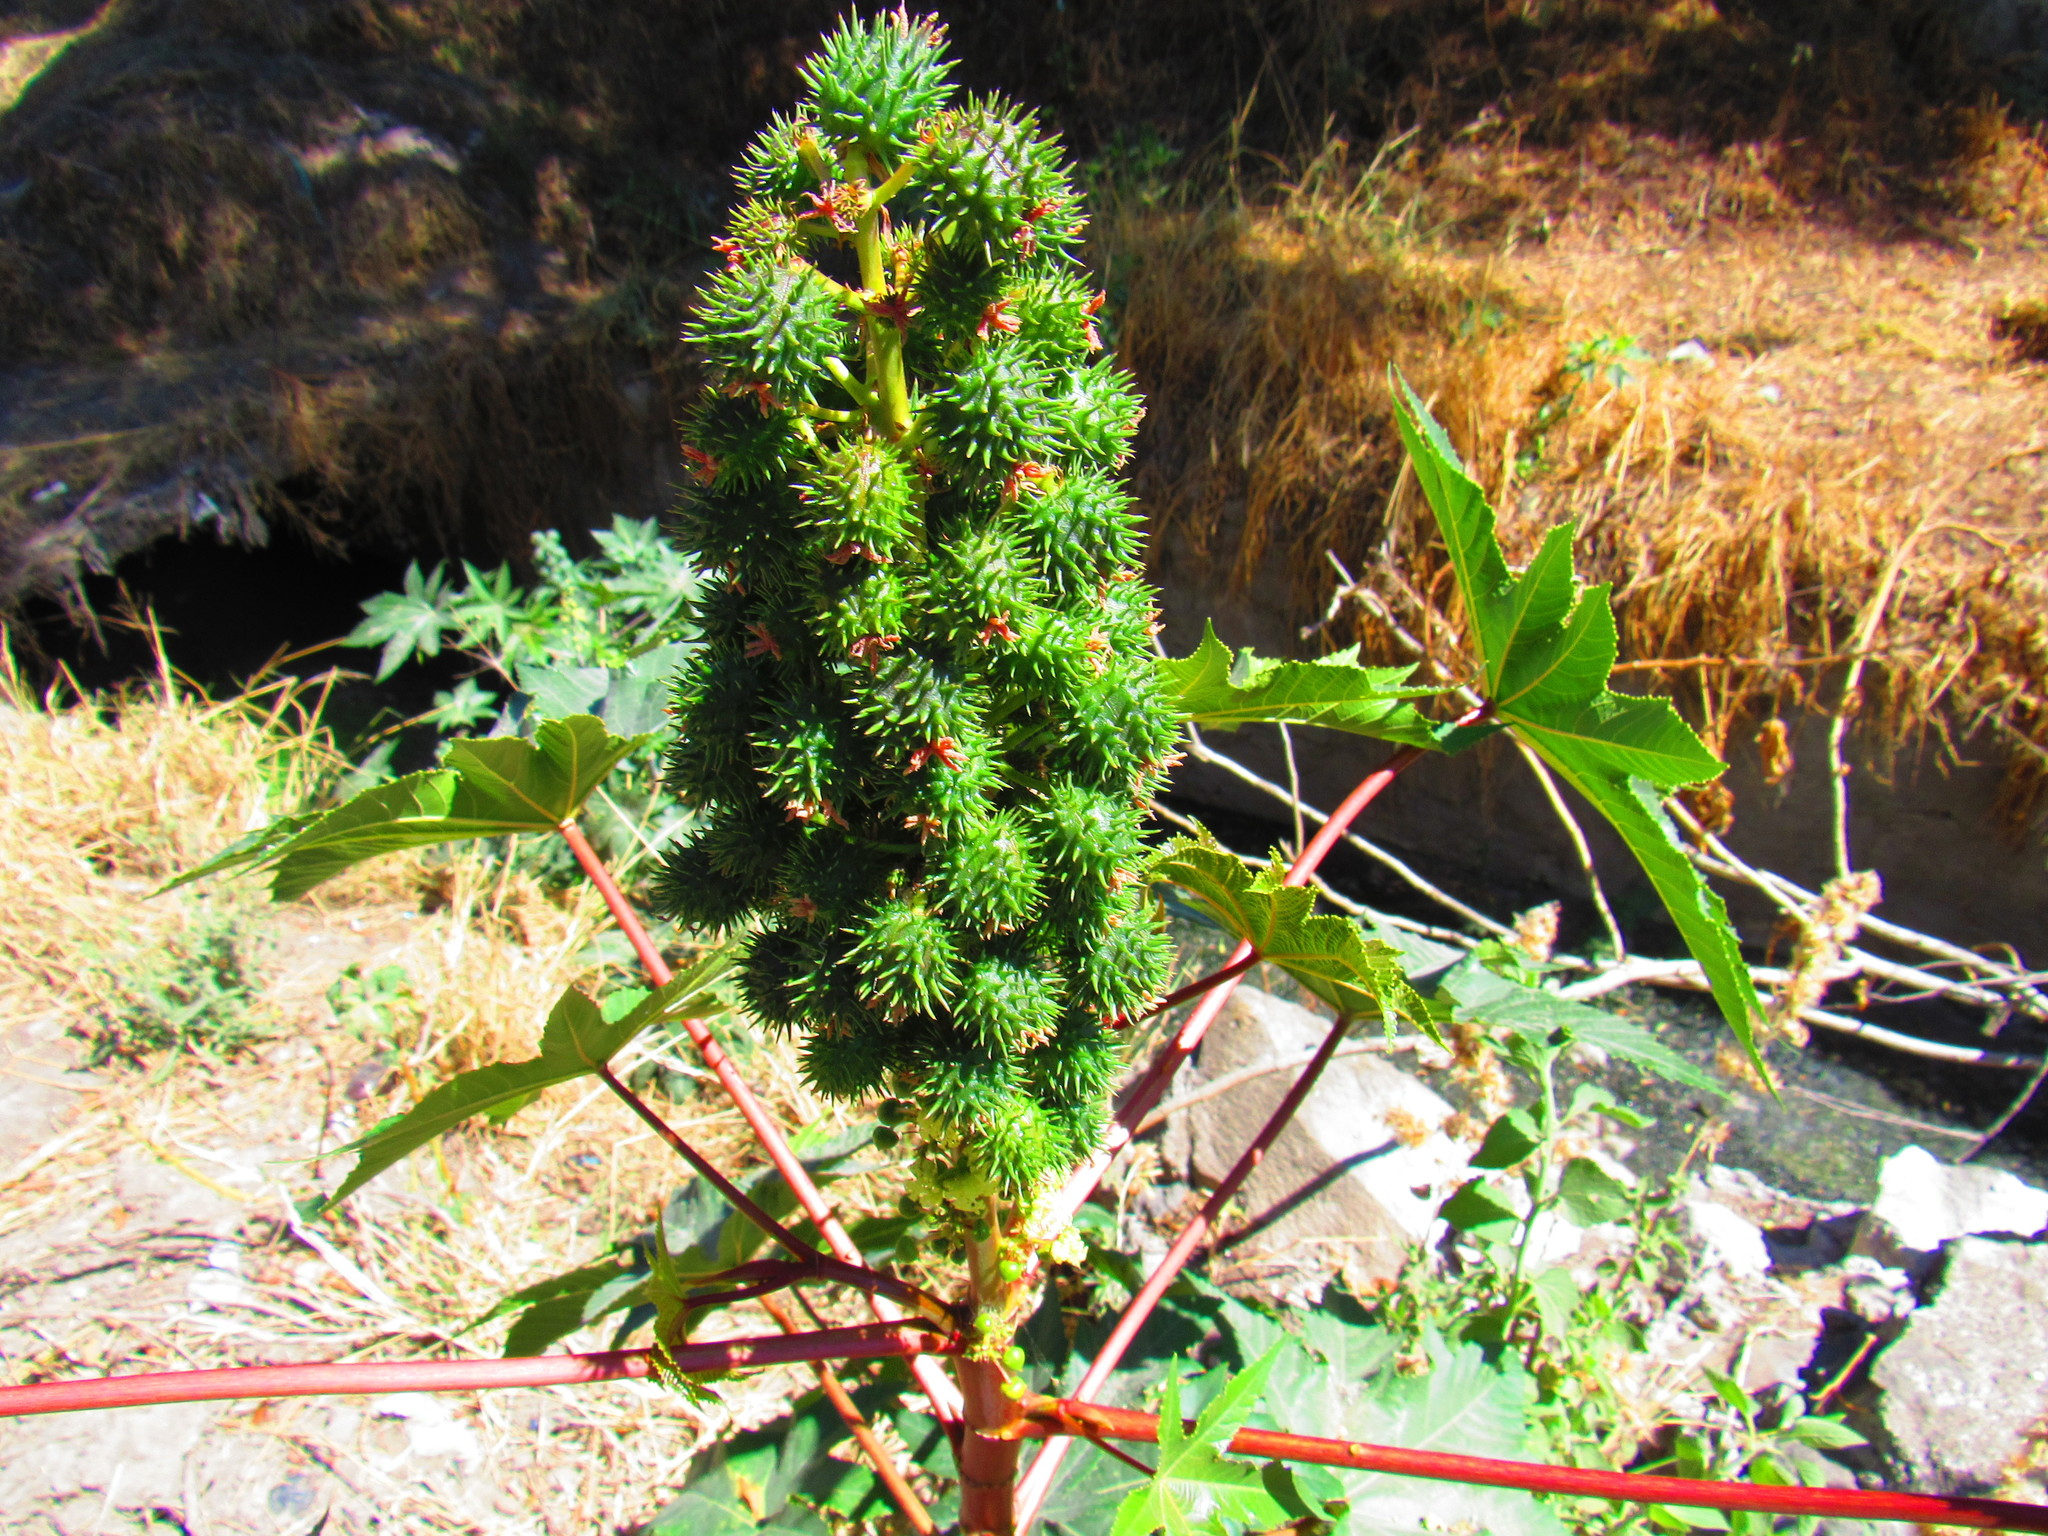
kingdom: Plantae
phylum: Tracheophyta
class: Magnoliopsida
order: Malpighiales
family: Euphorbiaceae
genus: Ricinus
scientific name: Ricinus communis
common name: Castor-oil-plant
